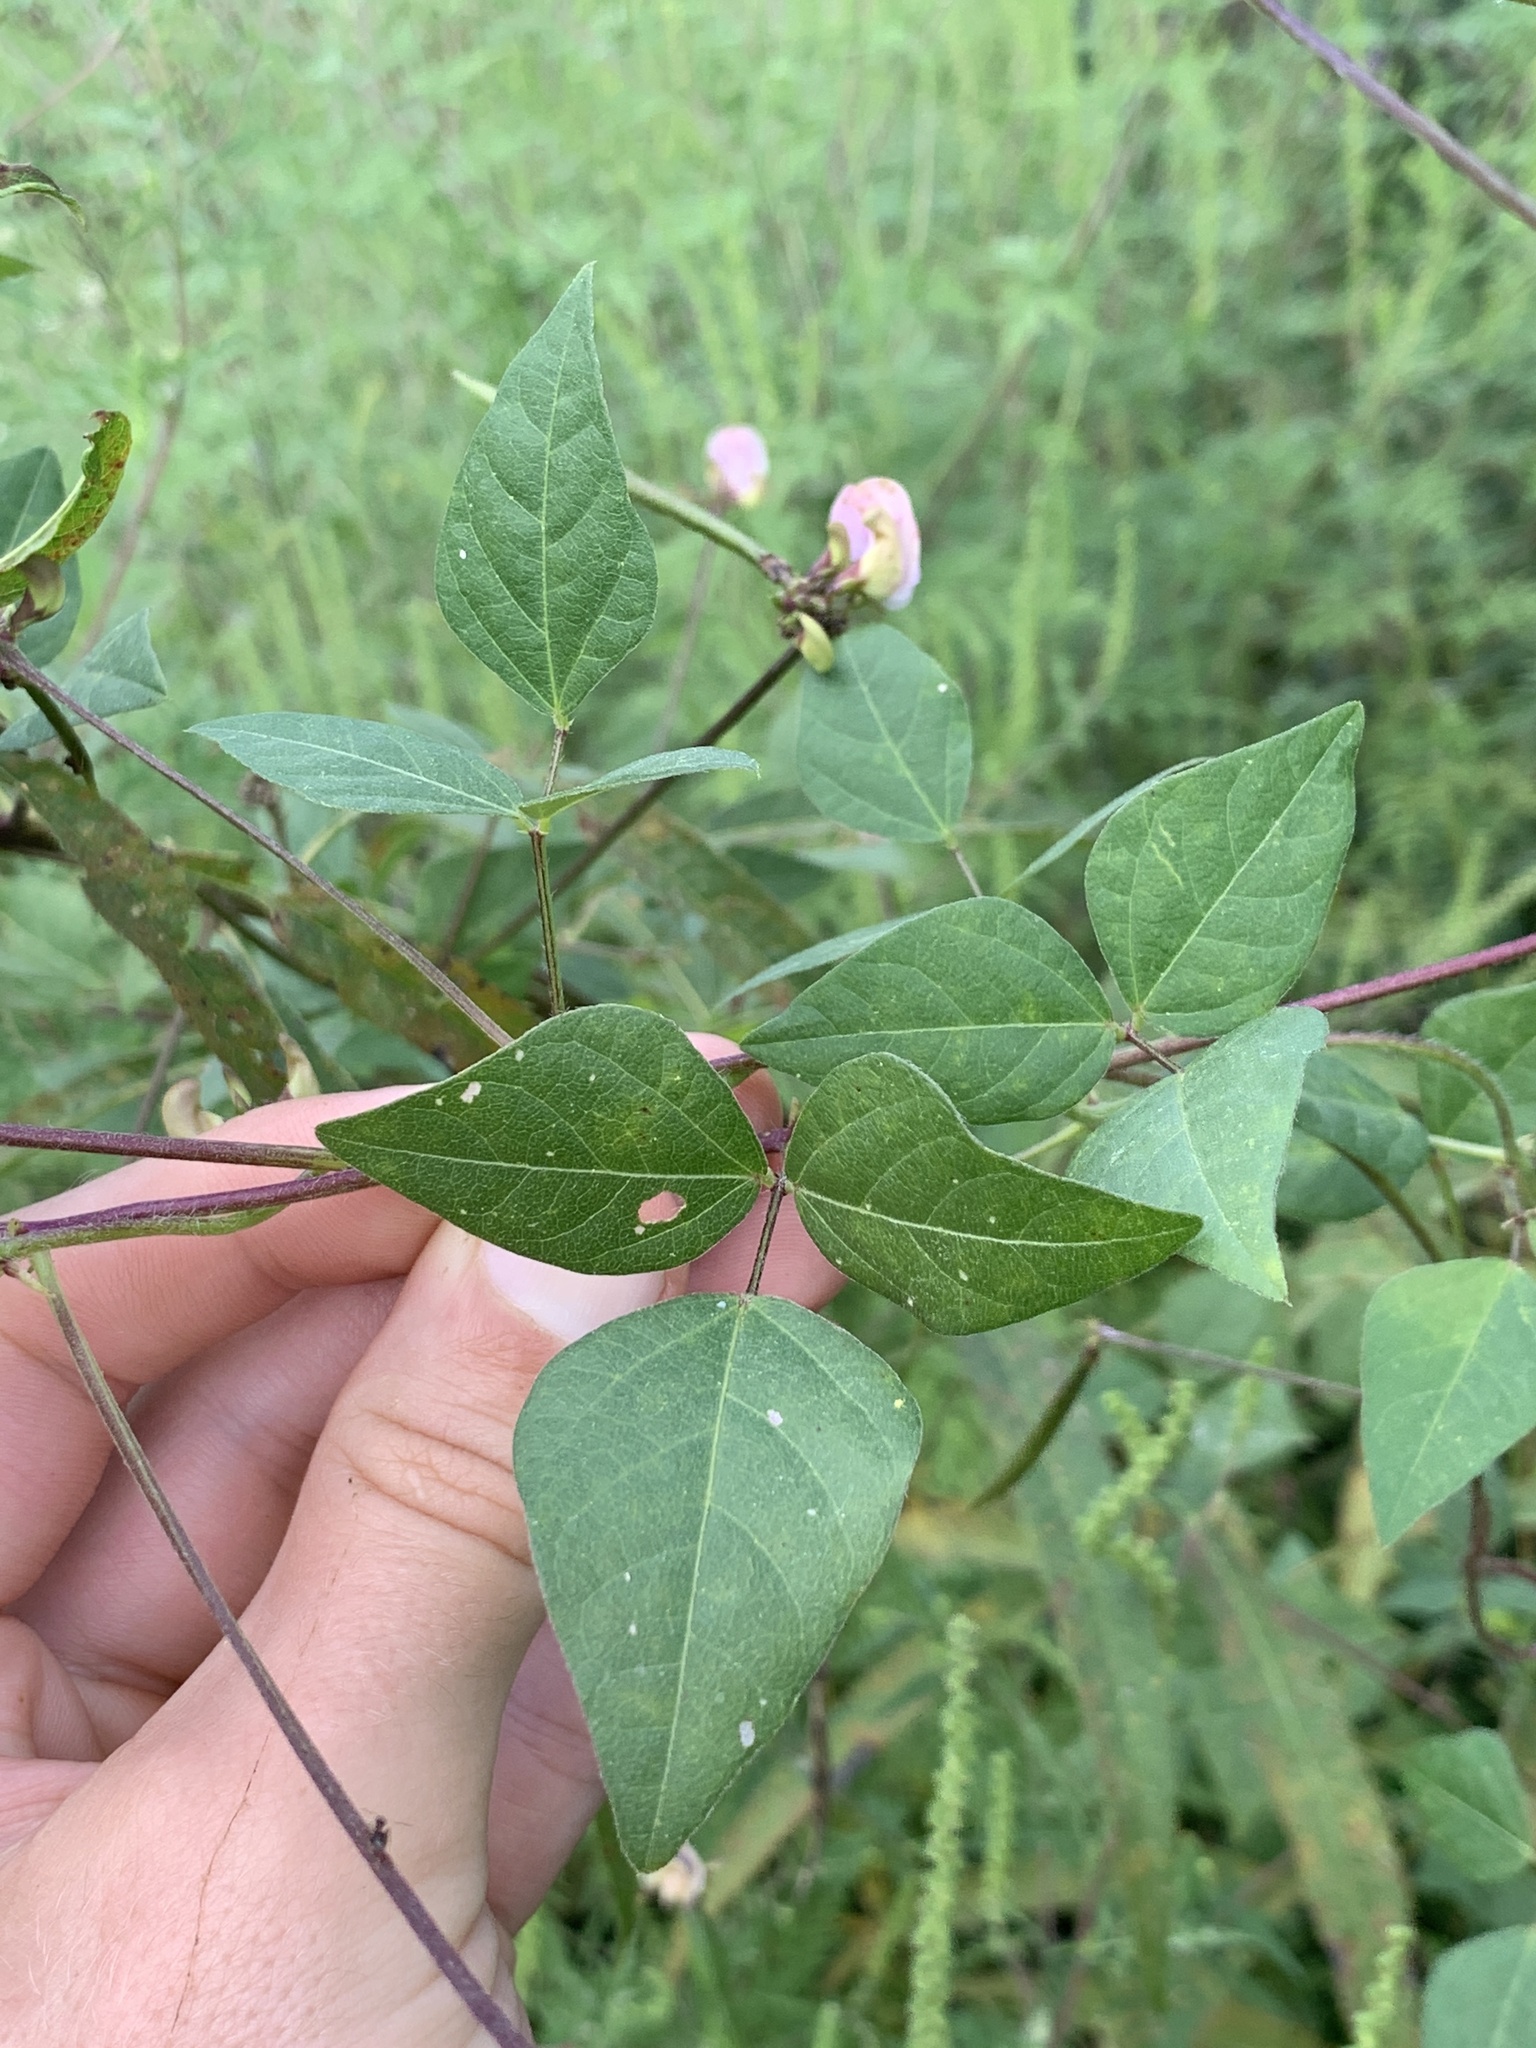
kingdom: Plantae
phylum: Tracheophyta
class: Magnoliopsida
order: Fabales
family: Fabaceae
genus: Strophostyles
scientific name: Strophostyles helvola
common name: Trailing wild bean
